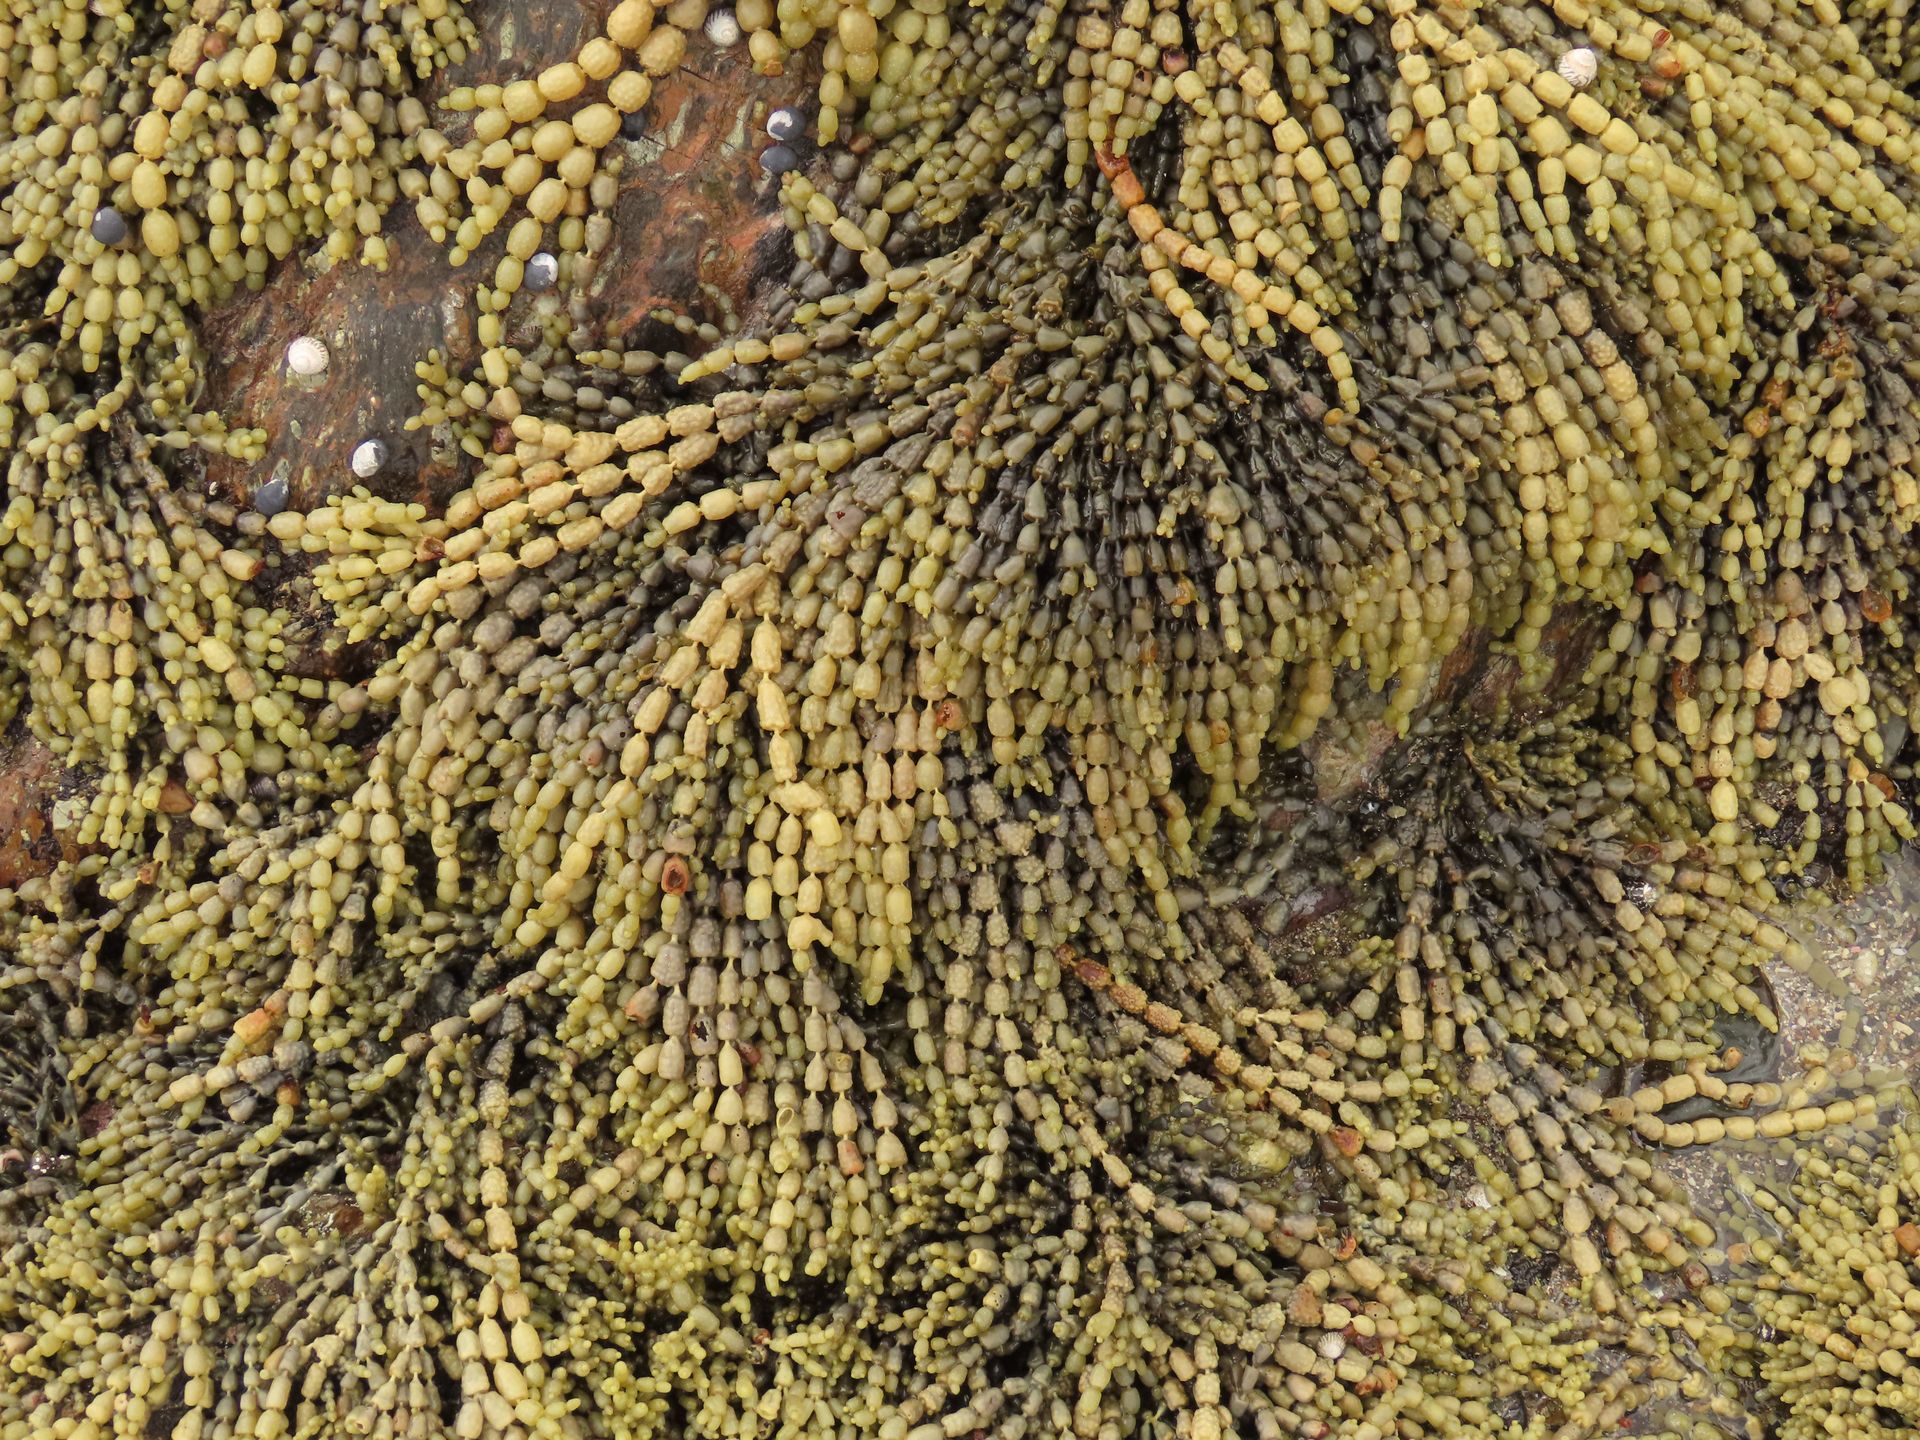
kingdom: Chromista
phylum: Ochrophyta
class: Phaeophyceae
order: Fucales
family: Hormosiraceae
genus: Hormosira
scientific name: Hormosira banksii
